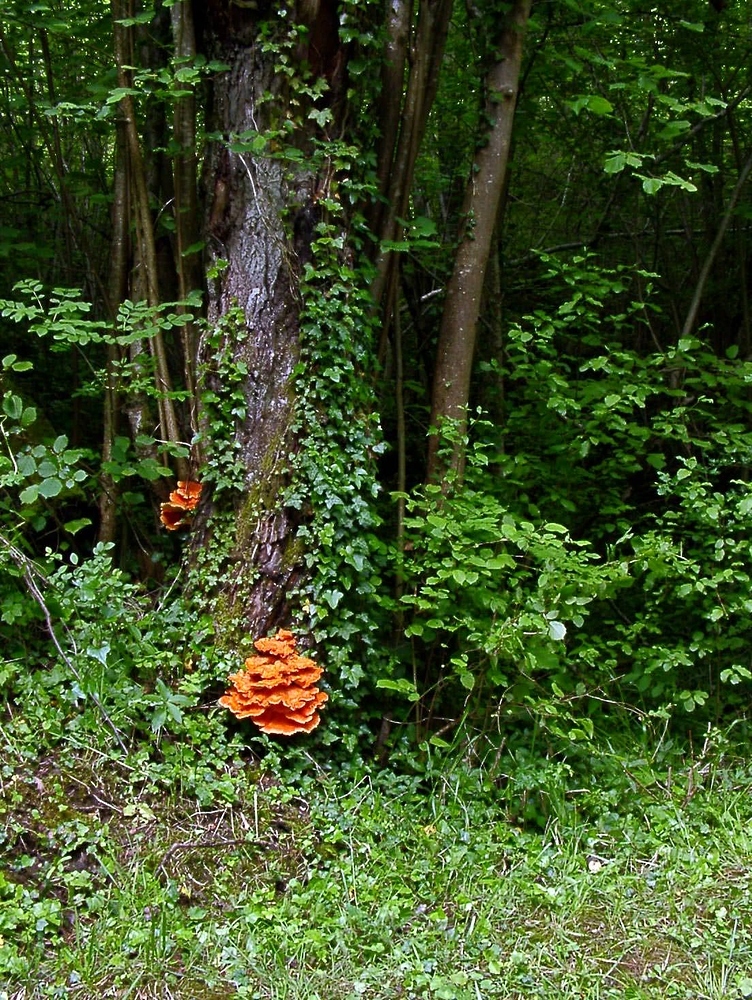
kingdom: Fungi
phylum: Basidiomycota
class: Agaricomycetes
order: Polyporales
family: Laetiporaceae
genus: Laetiporus
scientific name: Laetiporus sulphureus
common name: Chicken of the woods
